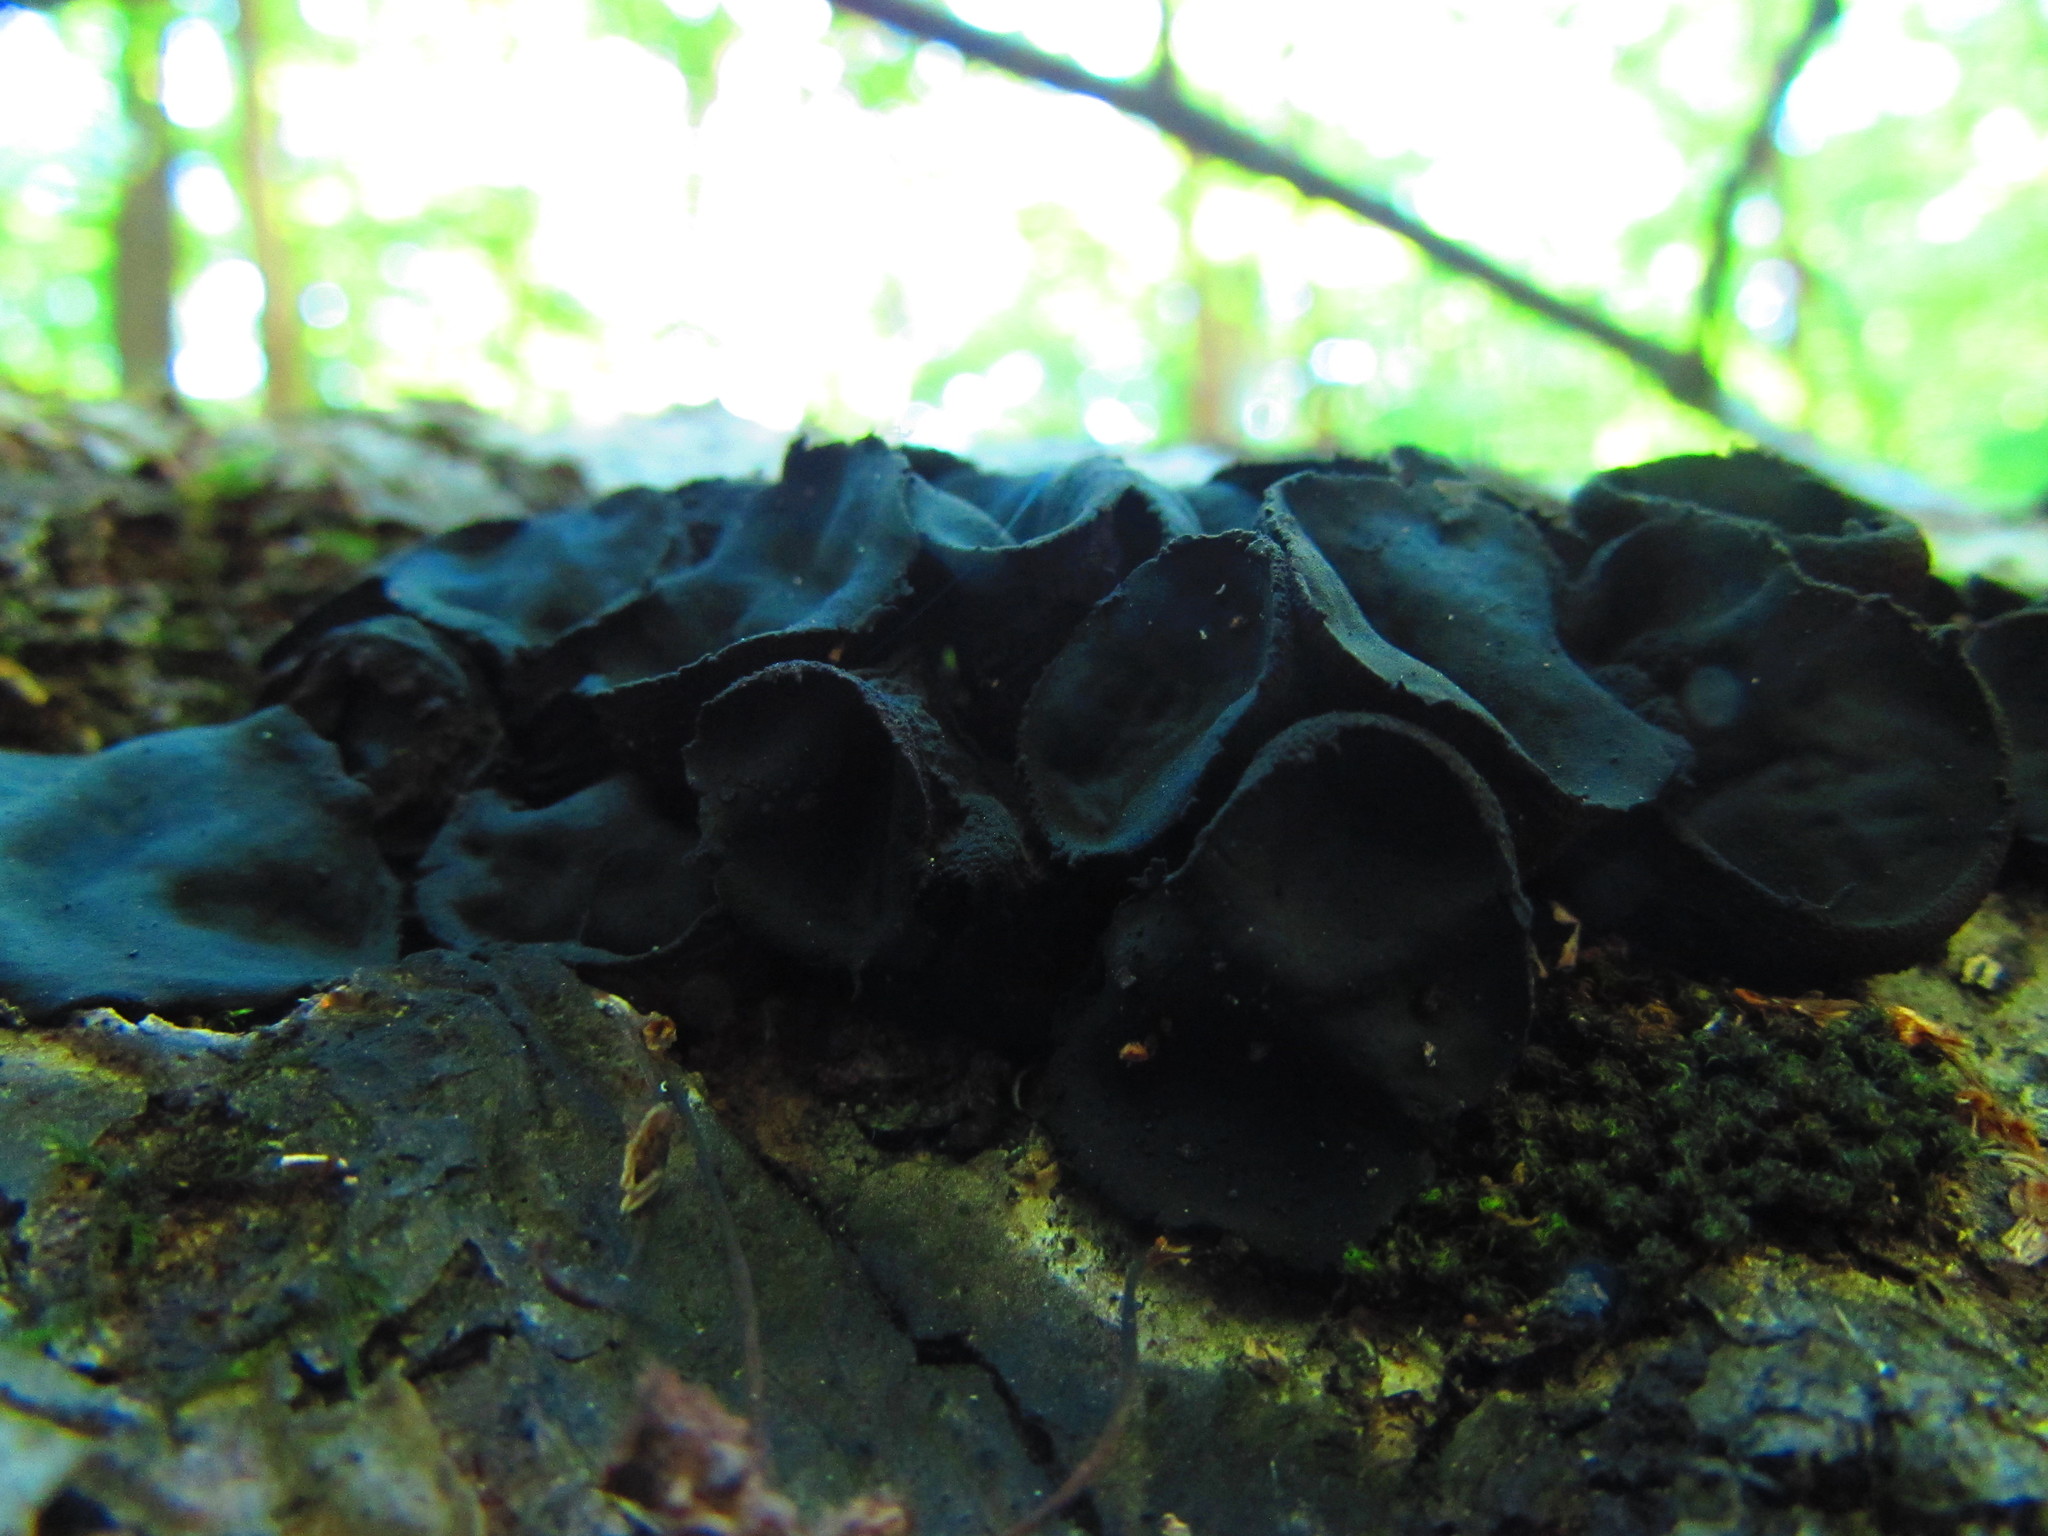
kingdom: Fungi
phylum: Ascomycota
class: Leotiomycetes
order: Phacidiales
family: Phacidiaceae
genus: Bulgaria
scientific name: Bulgaria inquinans
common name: Black bulgar
